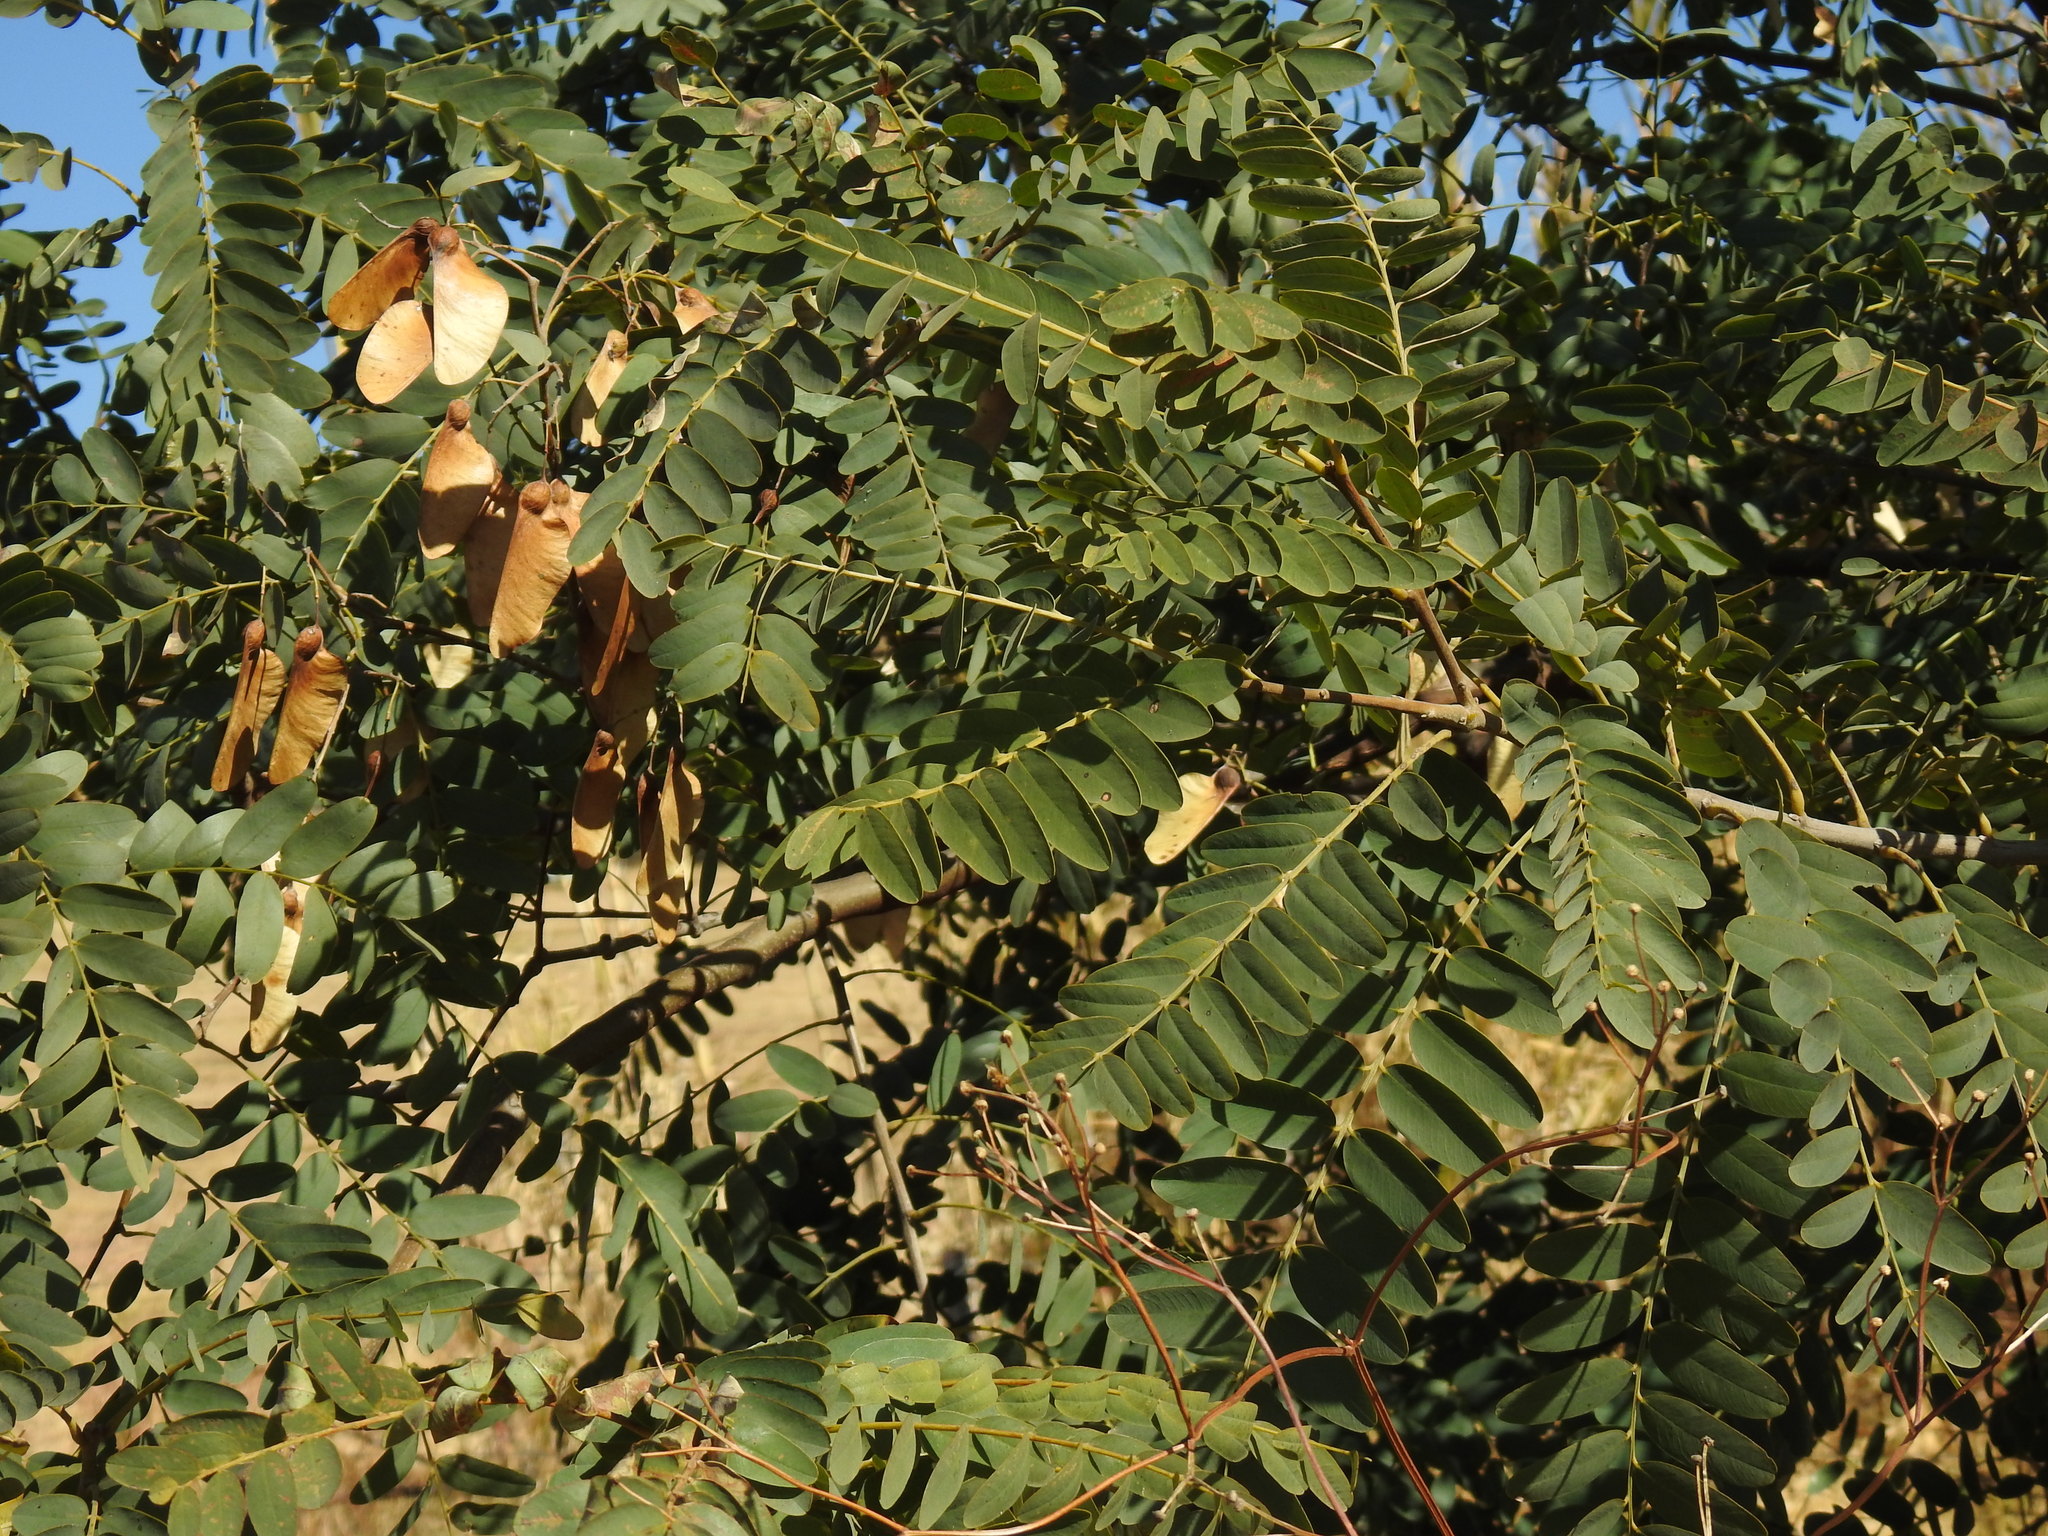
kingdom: Plantae
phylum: Tracheophyta
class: Magnoliopsida
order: Fabales
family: Fabaceae
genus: Tipuana
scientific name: Tipuana tipu
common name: Tiputree
